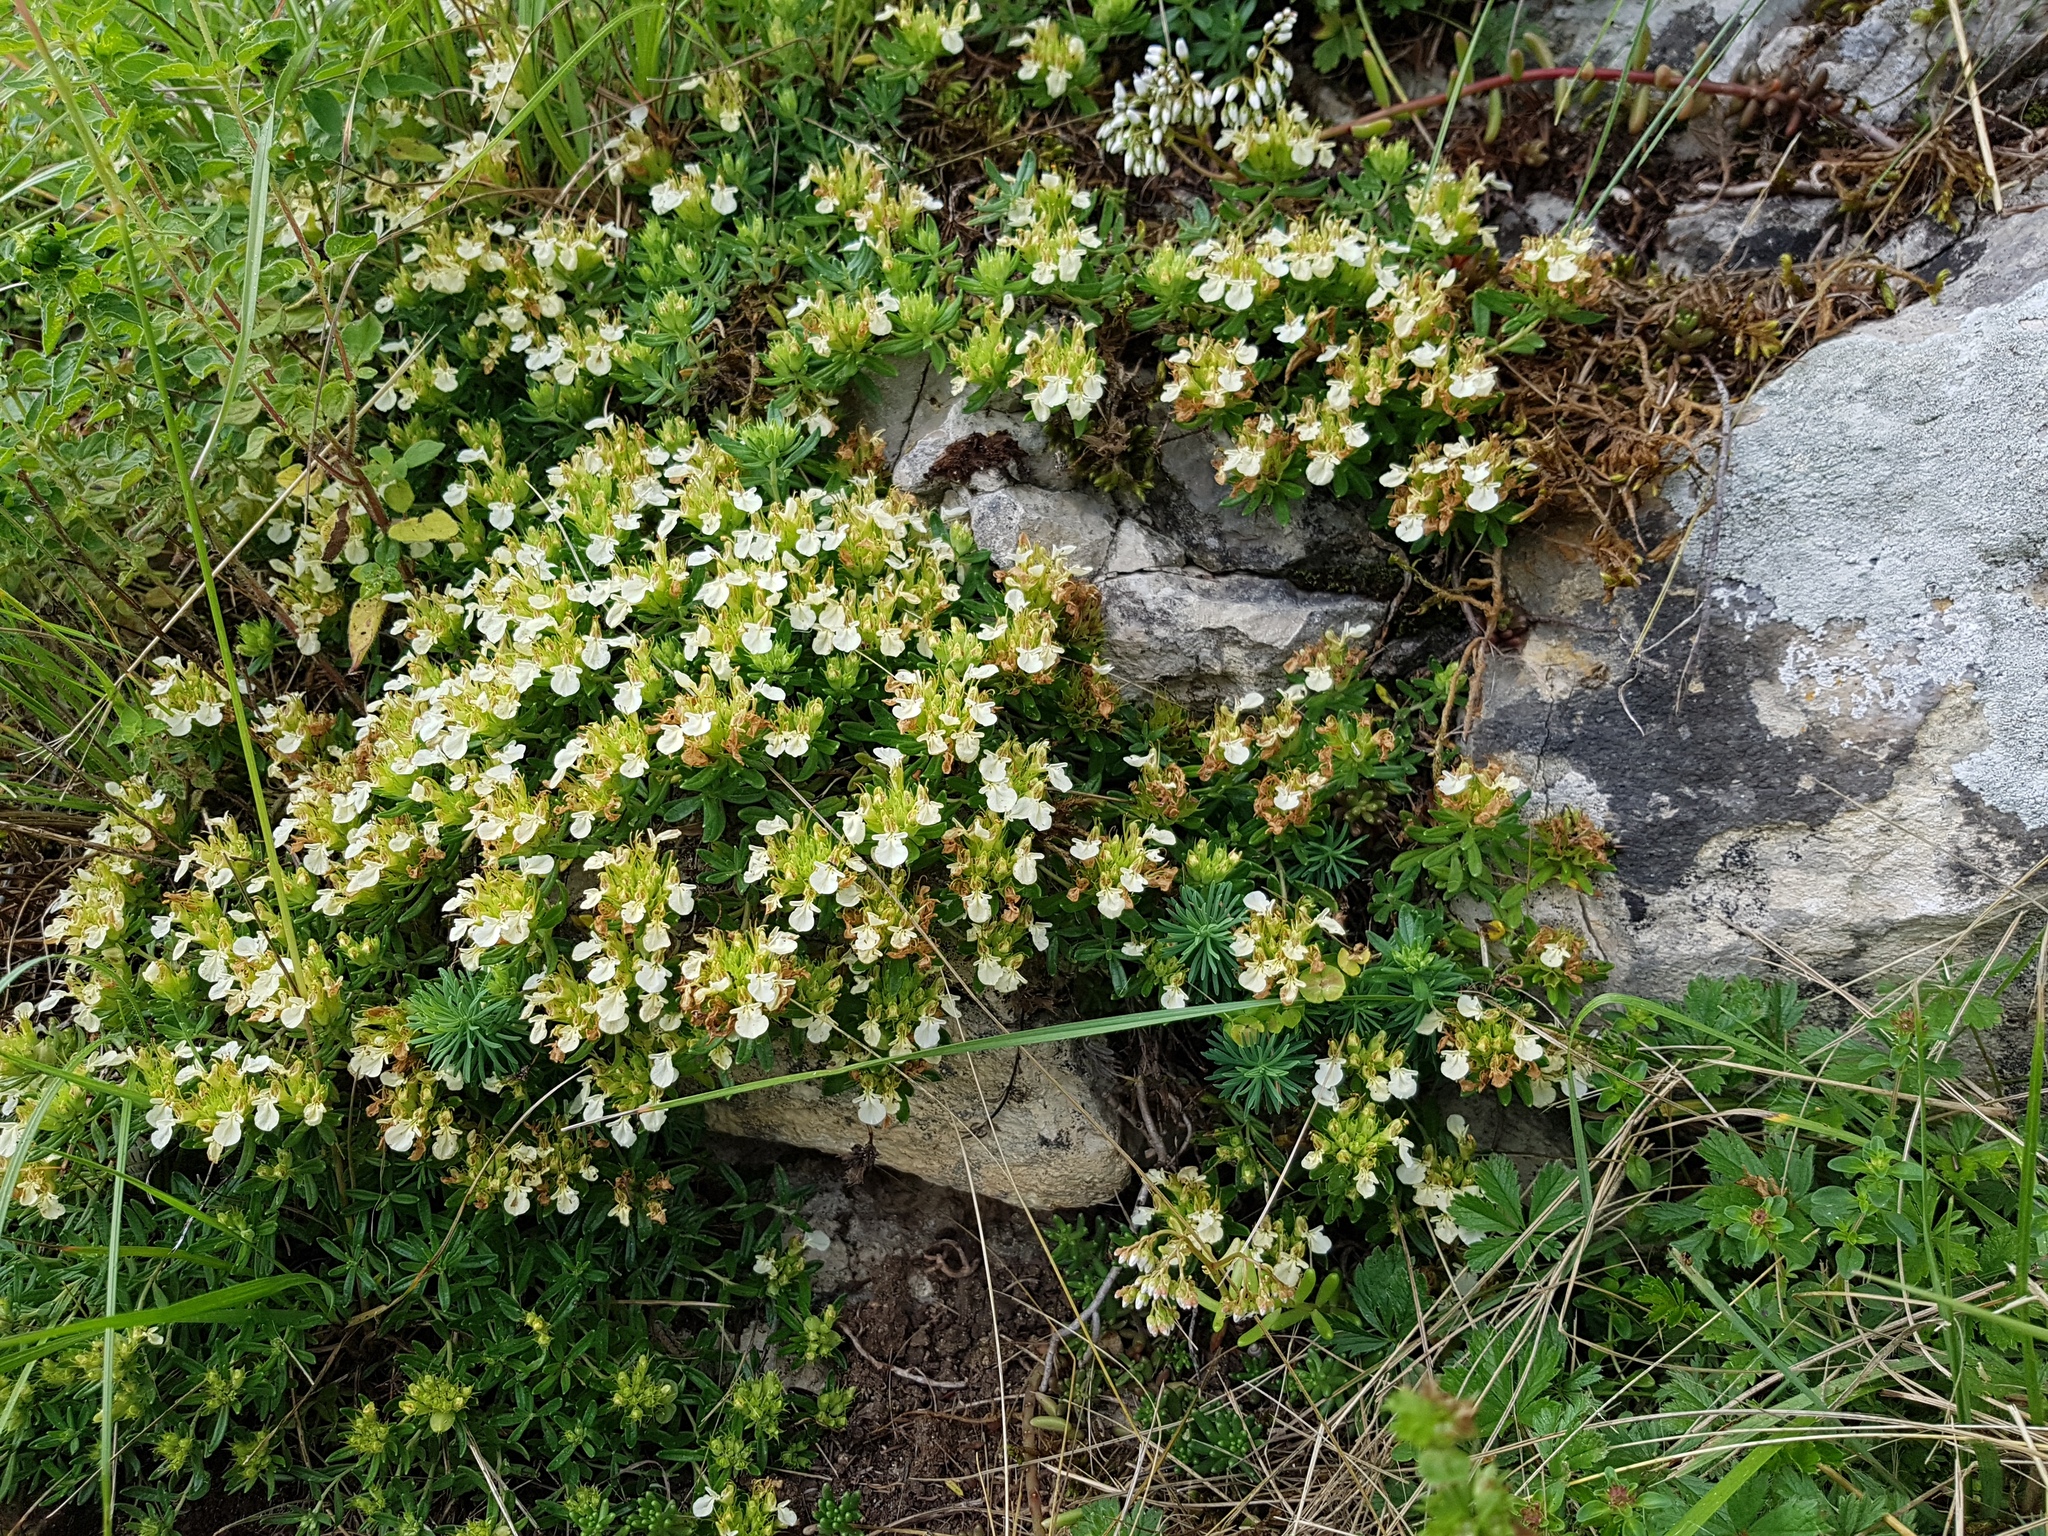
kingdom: Plantae
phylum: Tracheophyta
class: Magnoliopsida
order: Lamiales
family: Lamiaceae
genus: Teucrium
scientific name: Teucrium montanum
